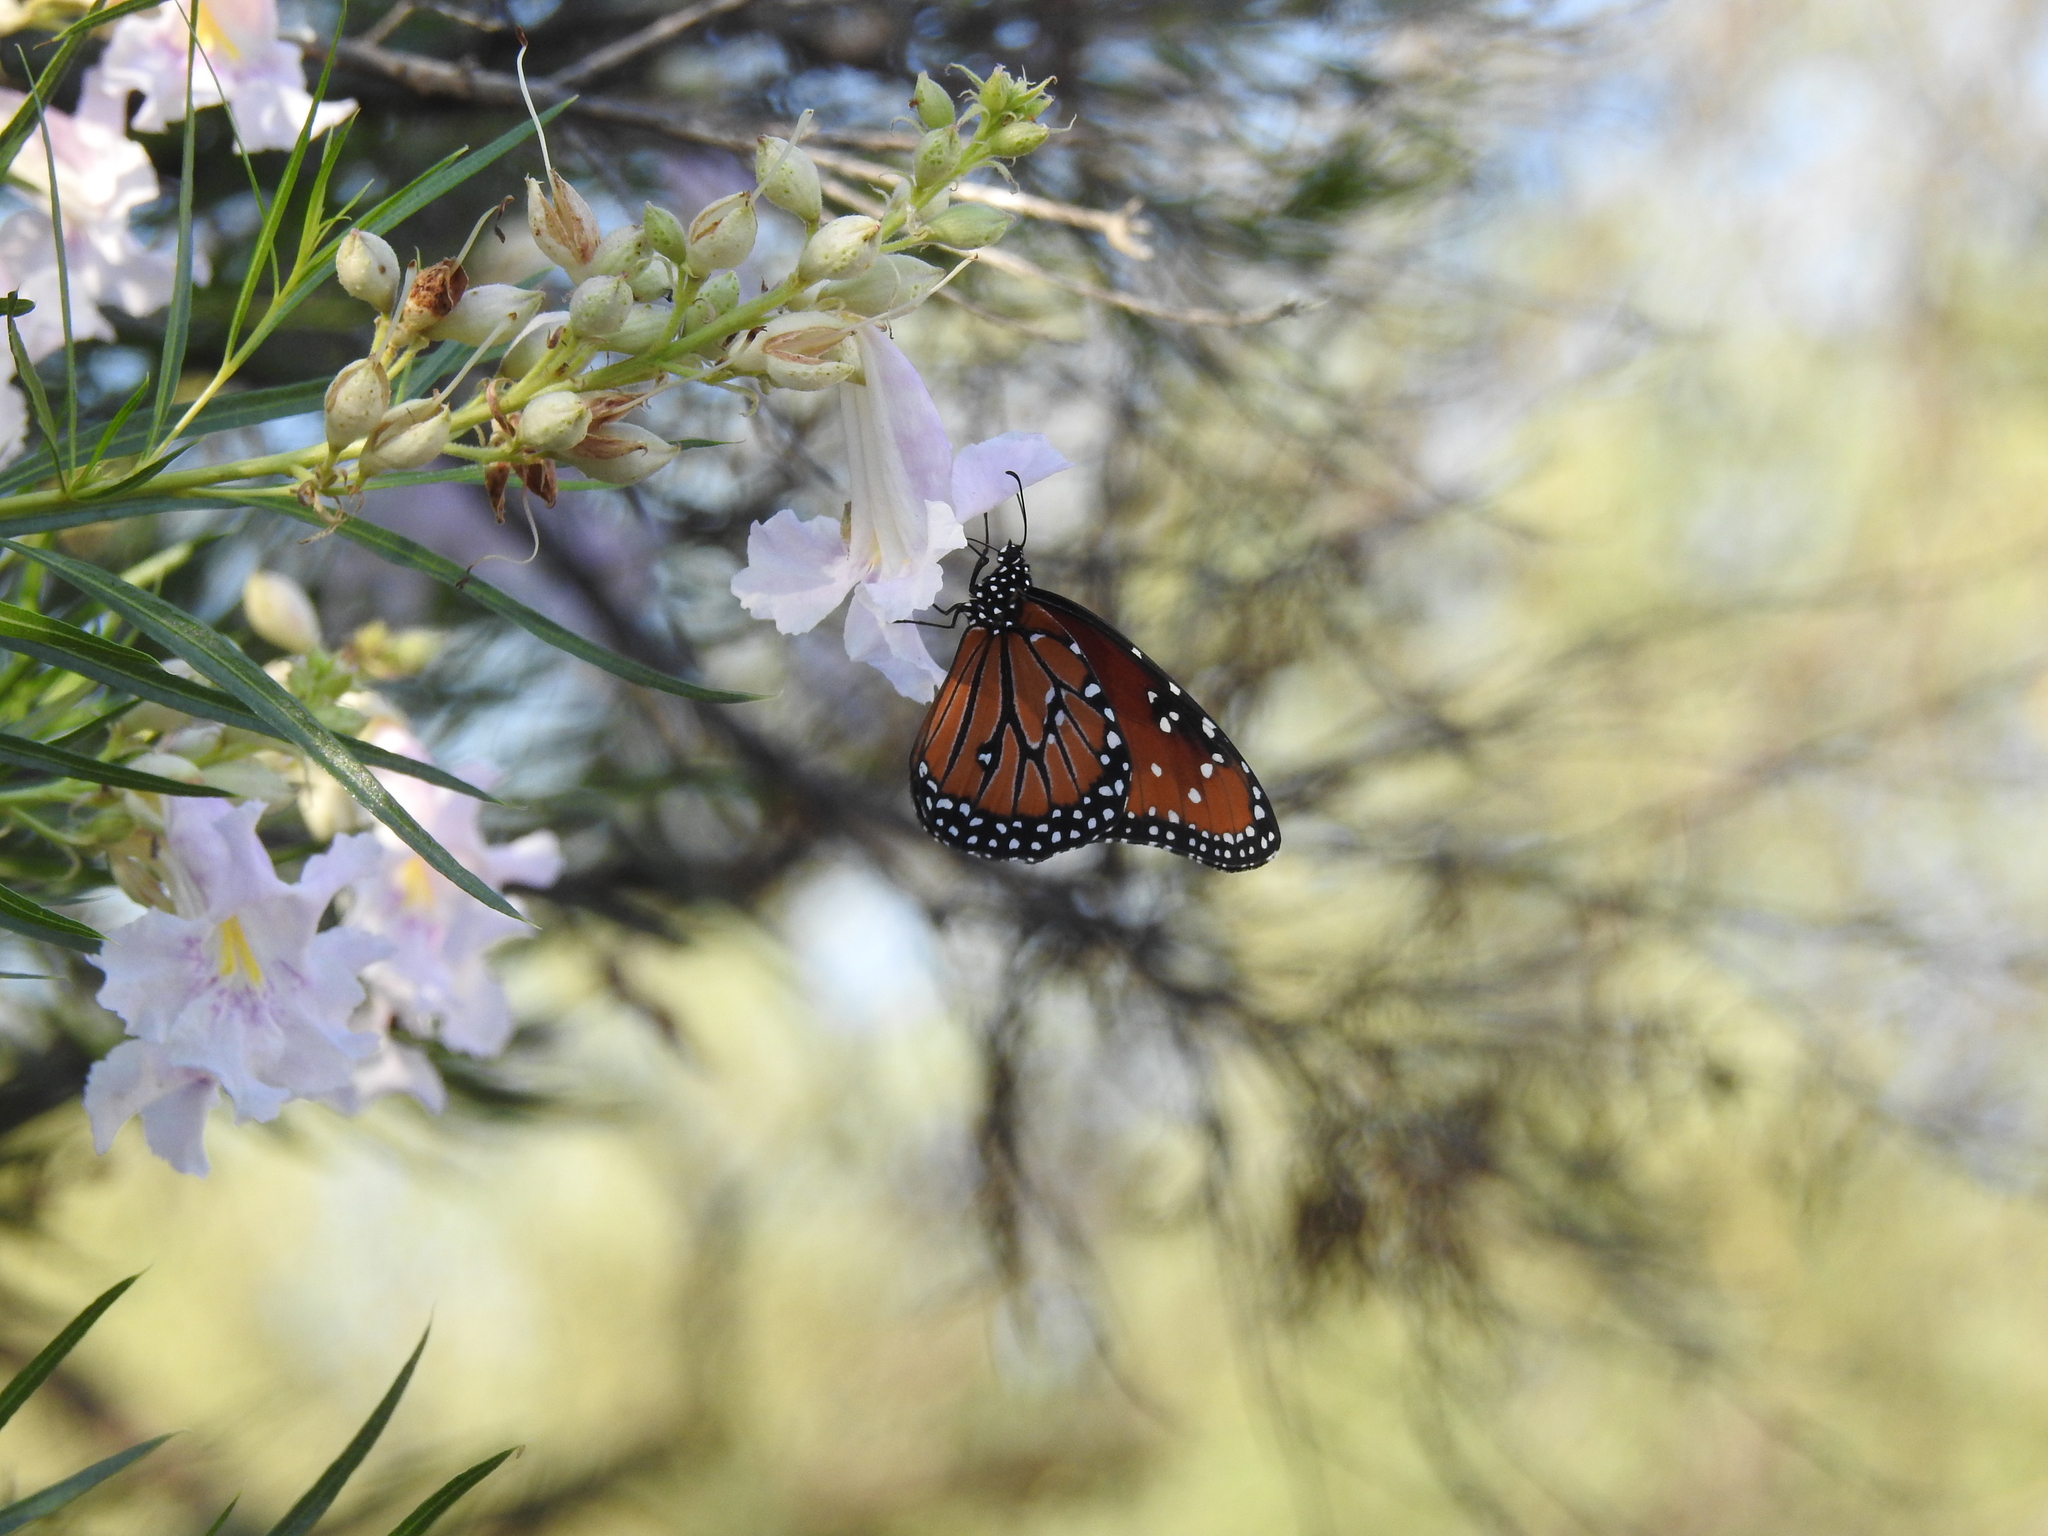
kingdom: Animalia
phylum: Arthropoda
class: Insecta
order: Lepidoptera
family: Nymphalidae
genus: Danaus
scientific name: Danaus gilippus
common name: Queen
